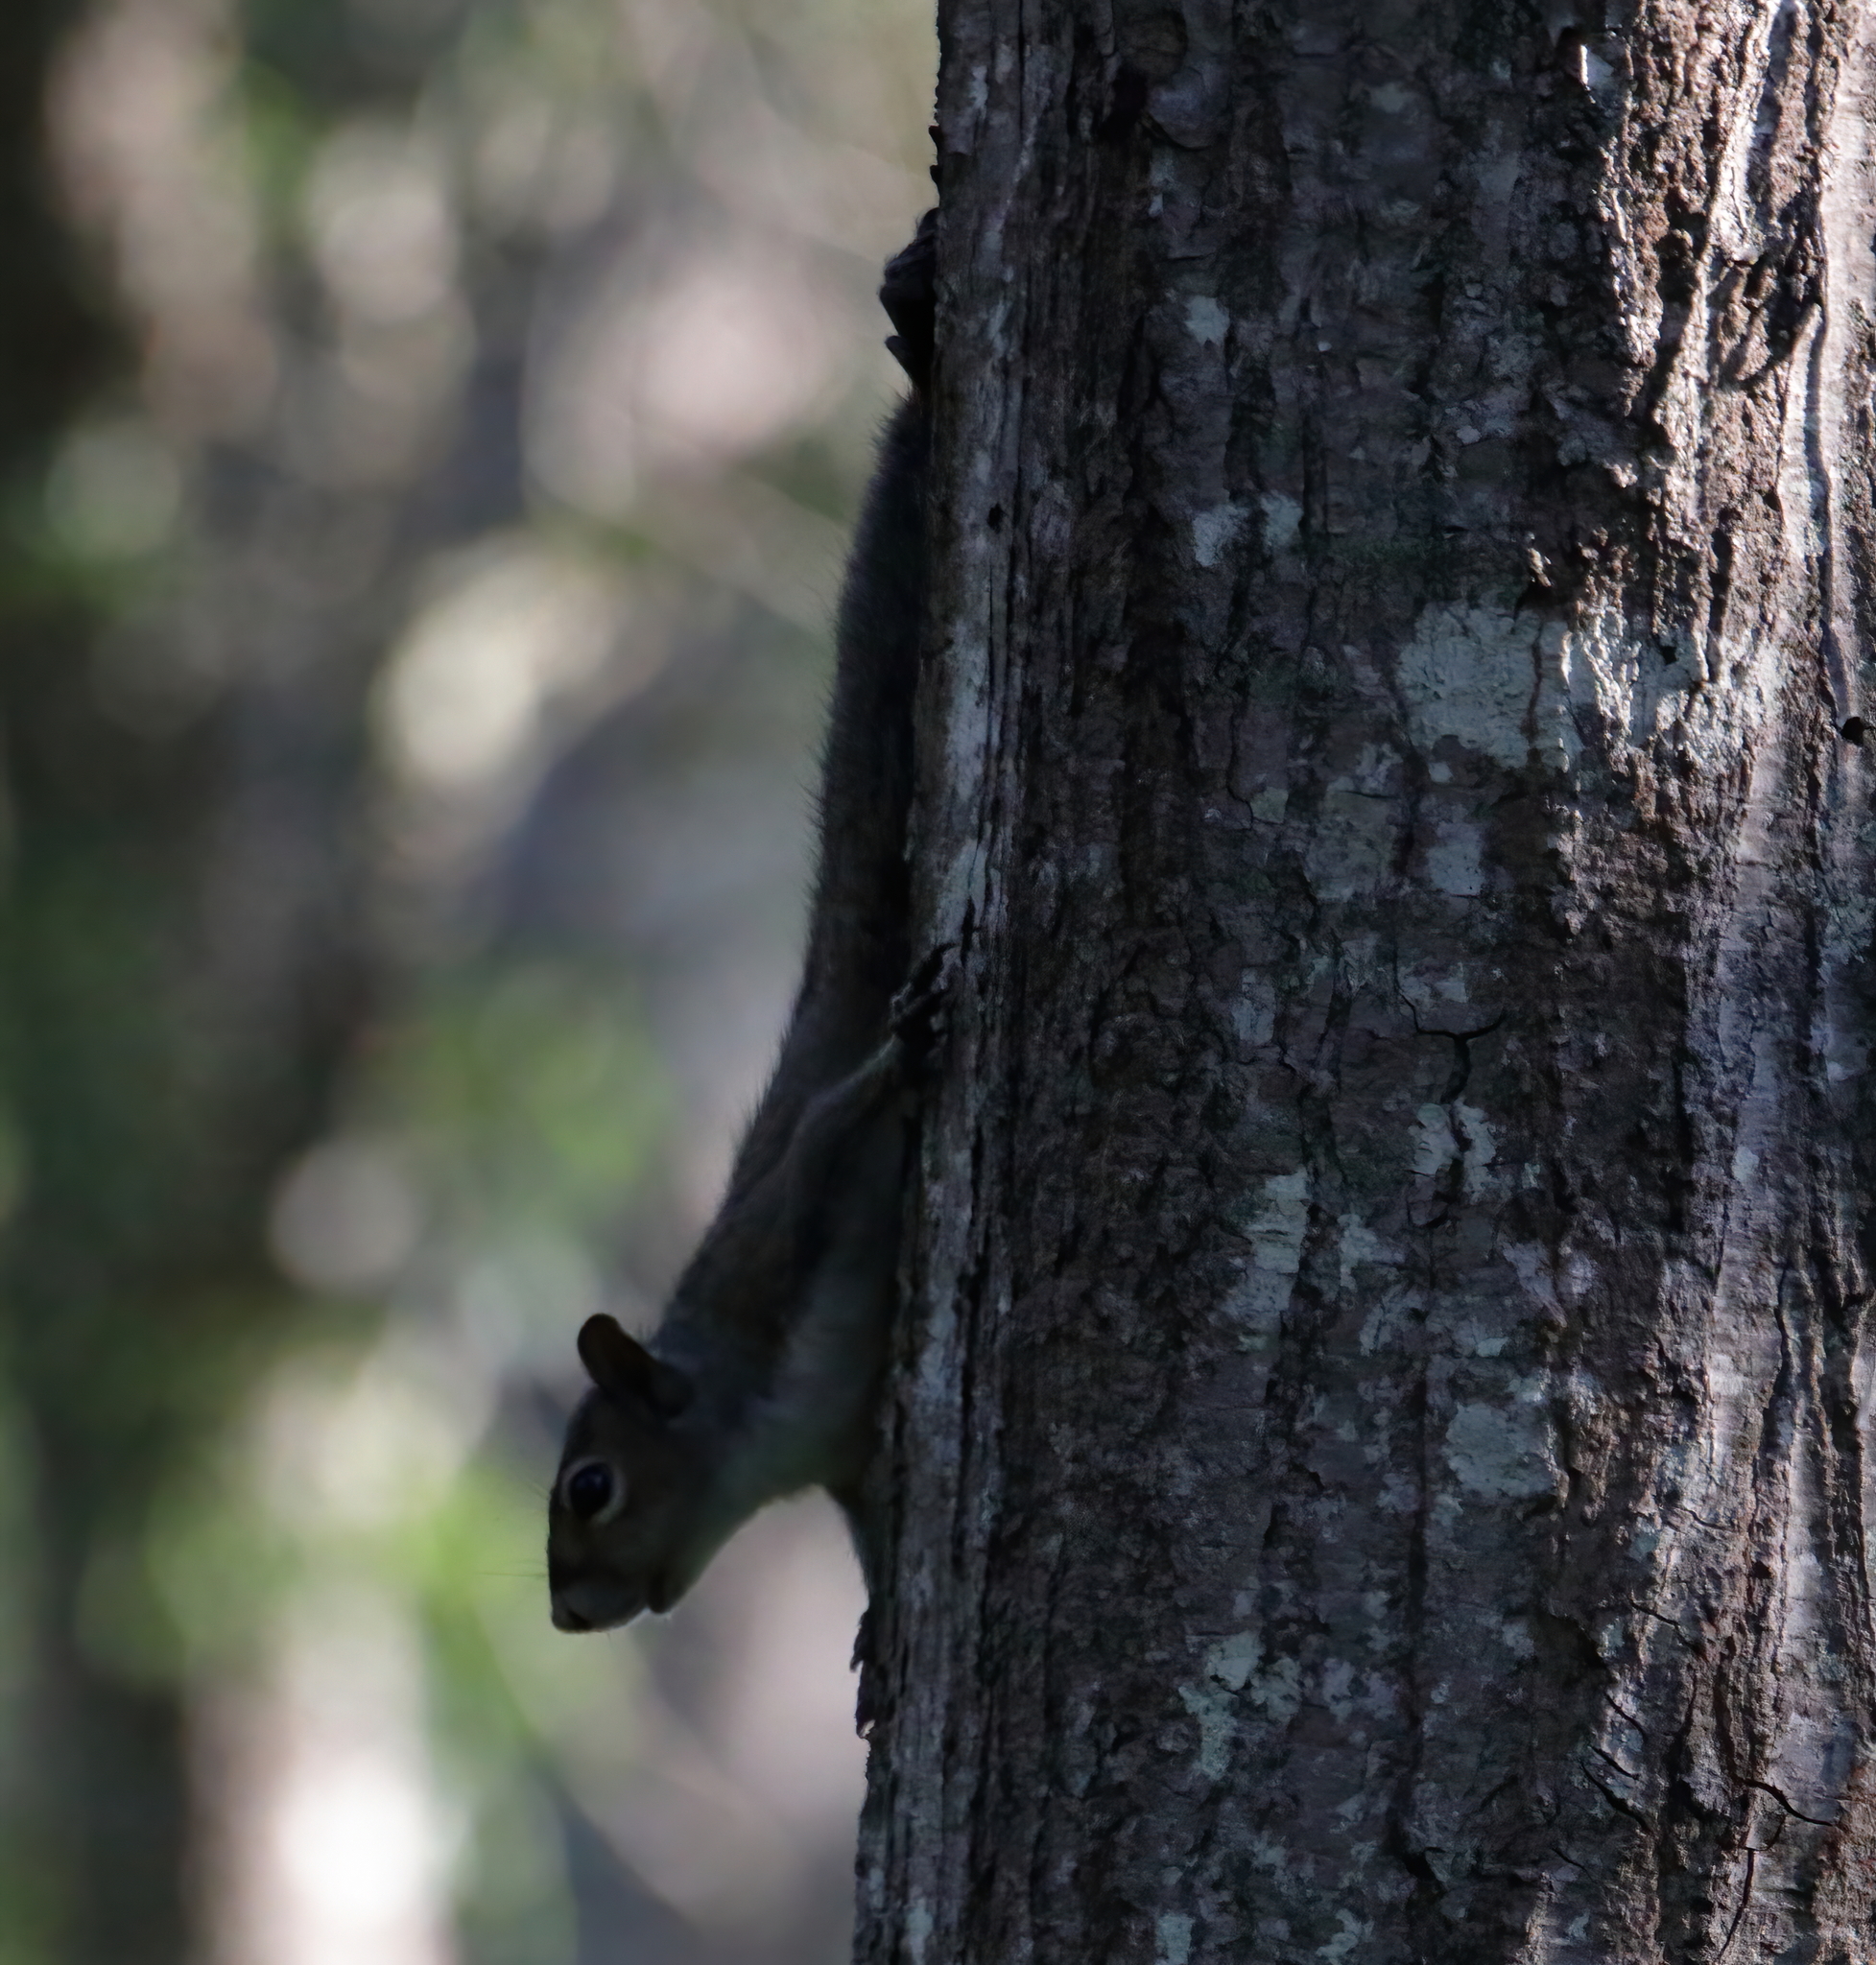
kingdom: Animalia
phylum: Chordata
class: Mammalia
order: Rodentia
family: Sciuridae
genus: Sciurus
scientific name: Sciurus carolinensis
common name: Eastern gray squirrel
